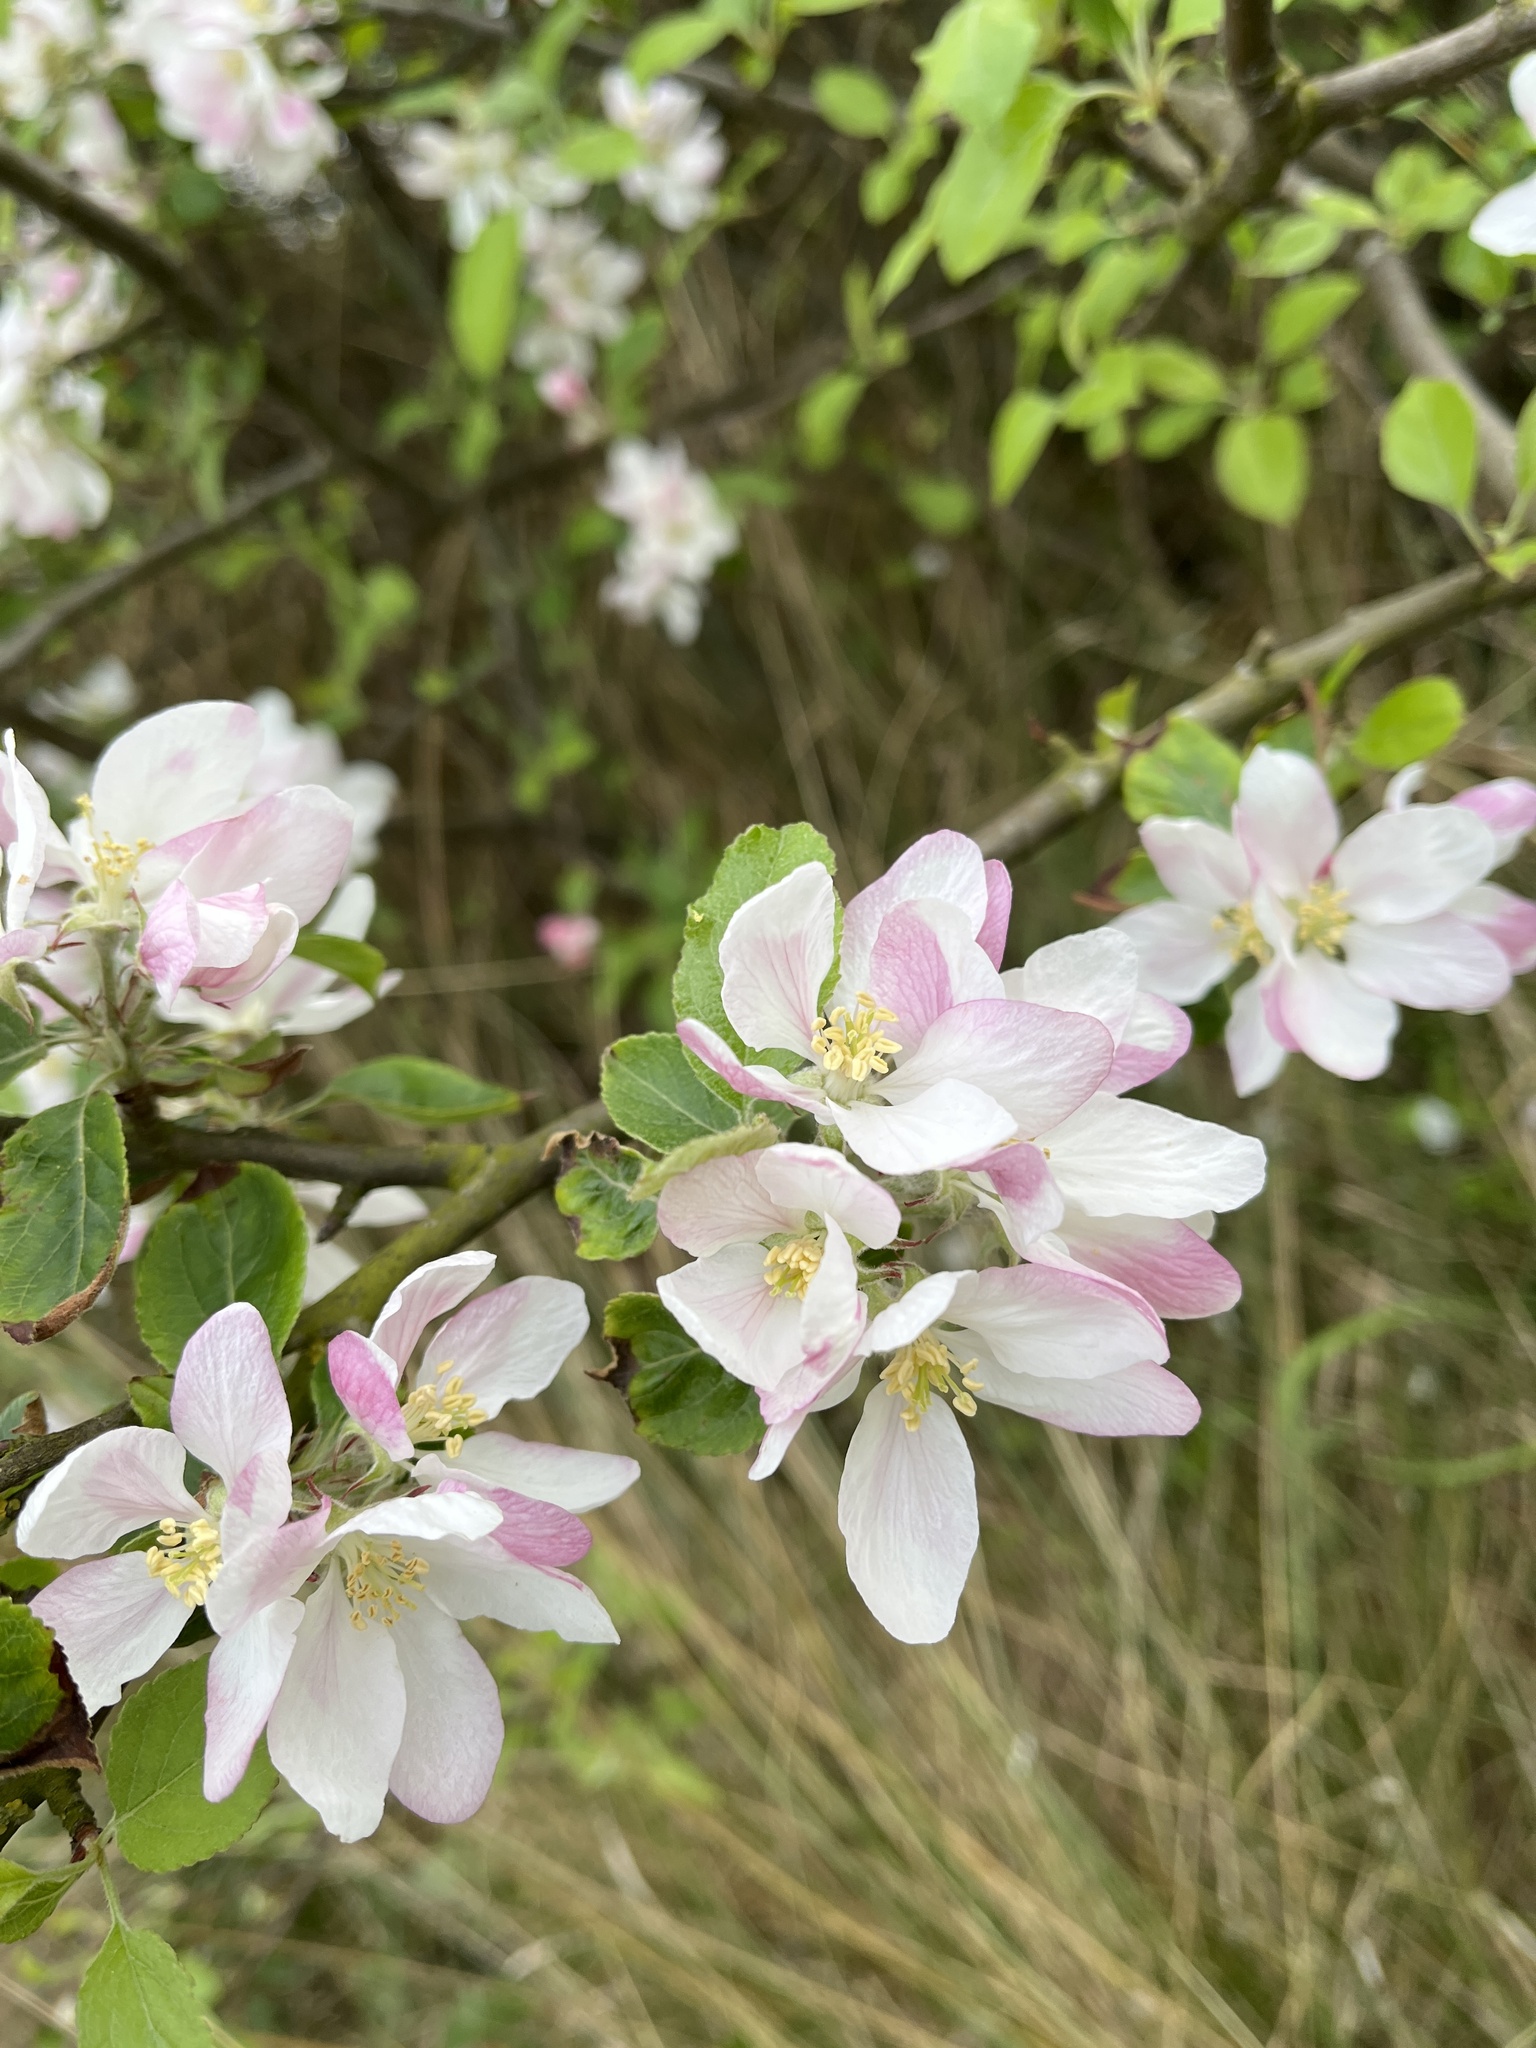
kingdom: Plantae
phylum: Tracheophyta
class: Magnoliopsida
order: Rosales
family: Rosaceae
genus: Malus
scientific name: Malus domestica
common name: Apple
